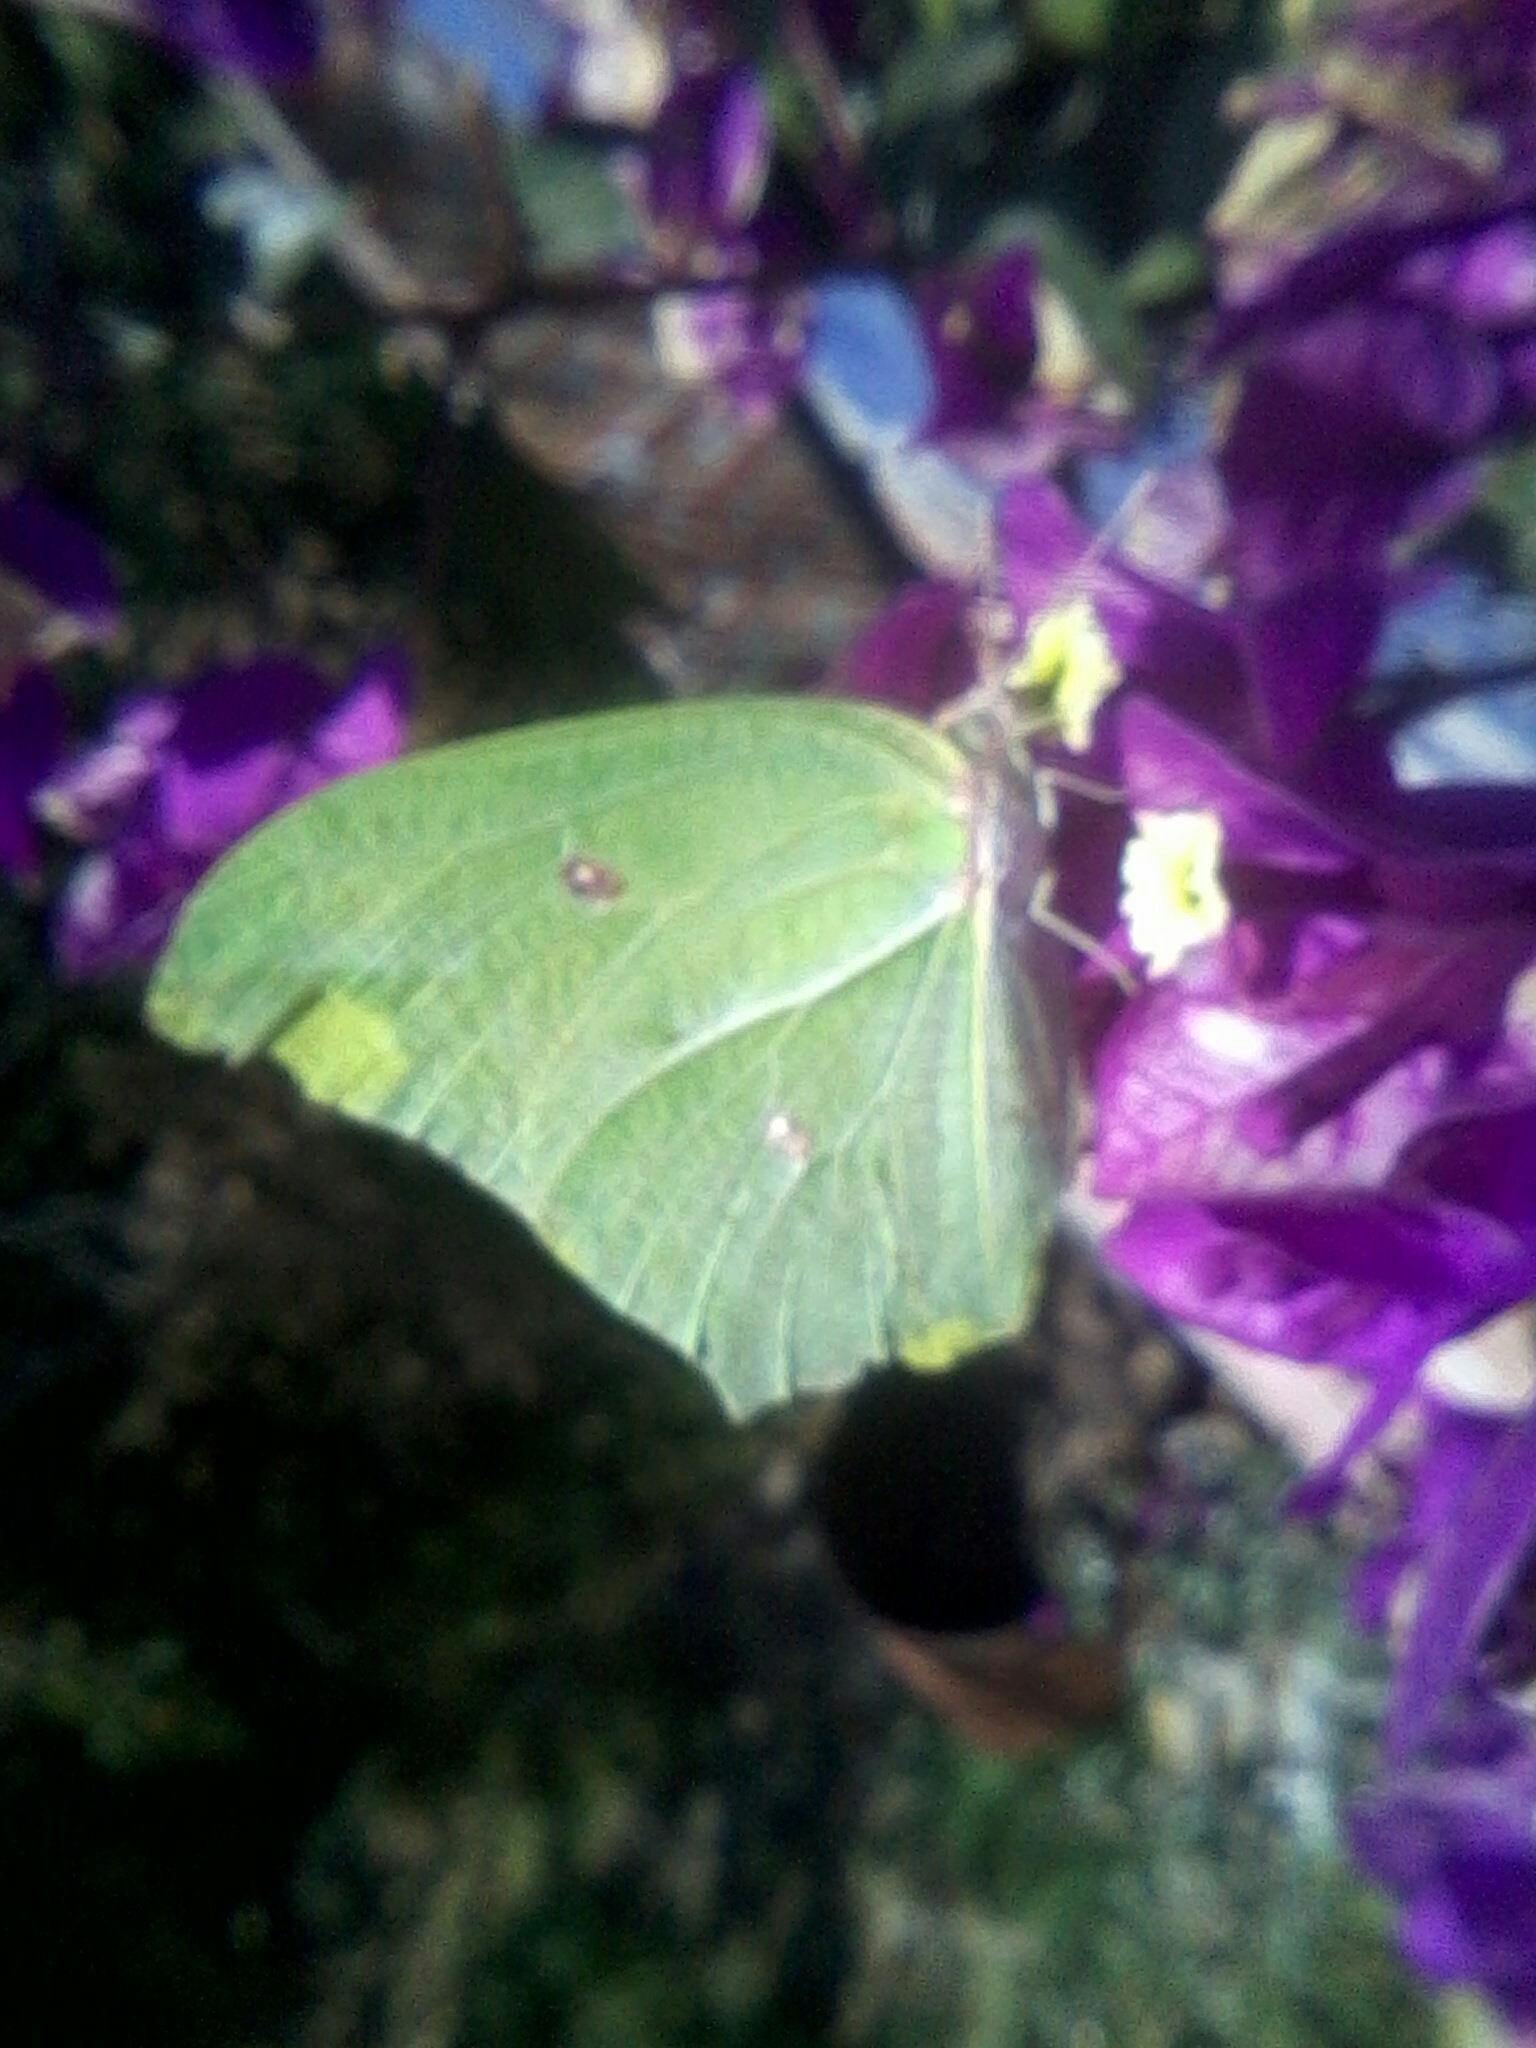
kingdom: Animalia
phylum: Arthropoda
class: Insecta
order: Lepidoptera
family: Pieridae
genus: Anteos
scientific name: Anteos maerula
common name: Angled sulphur
